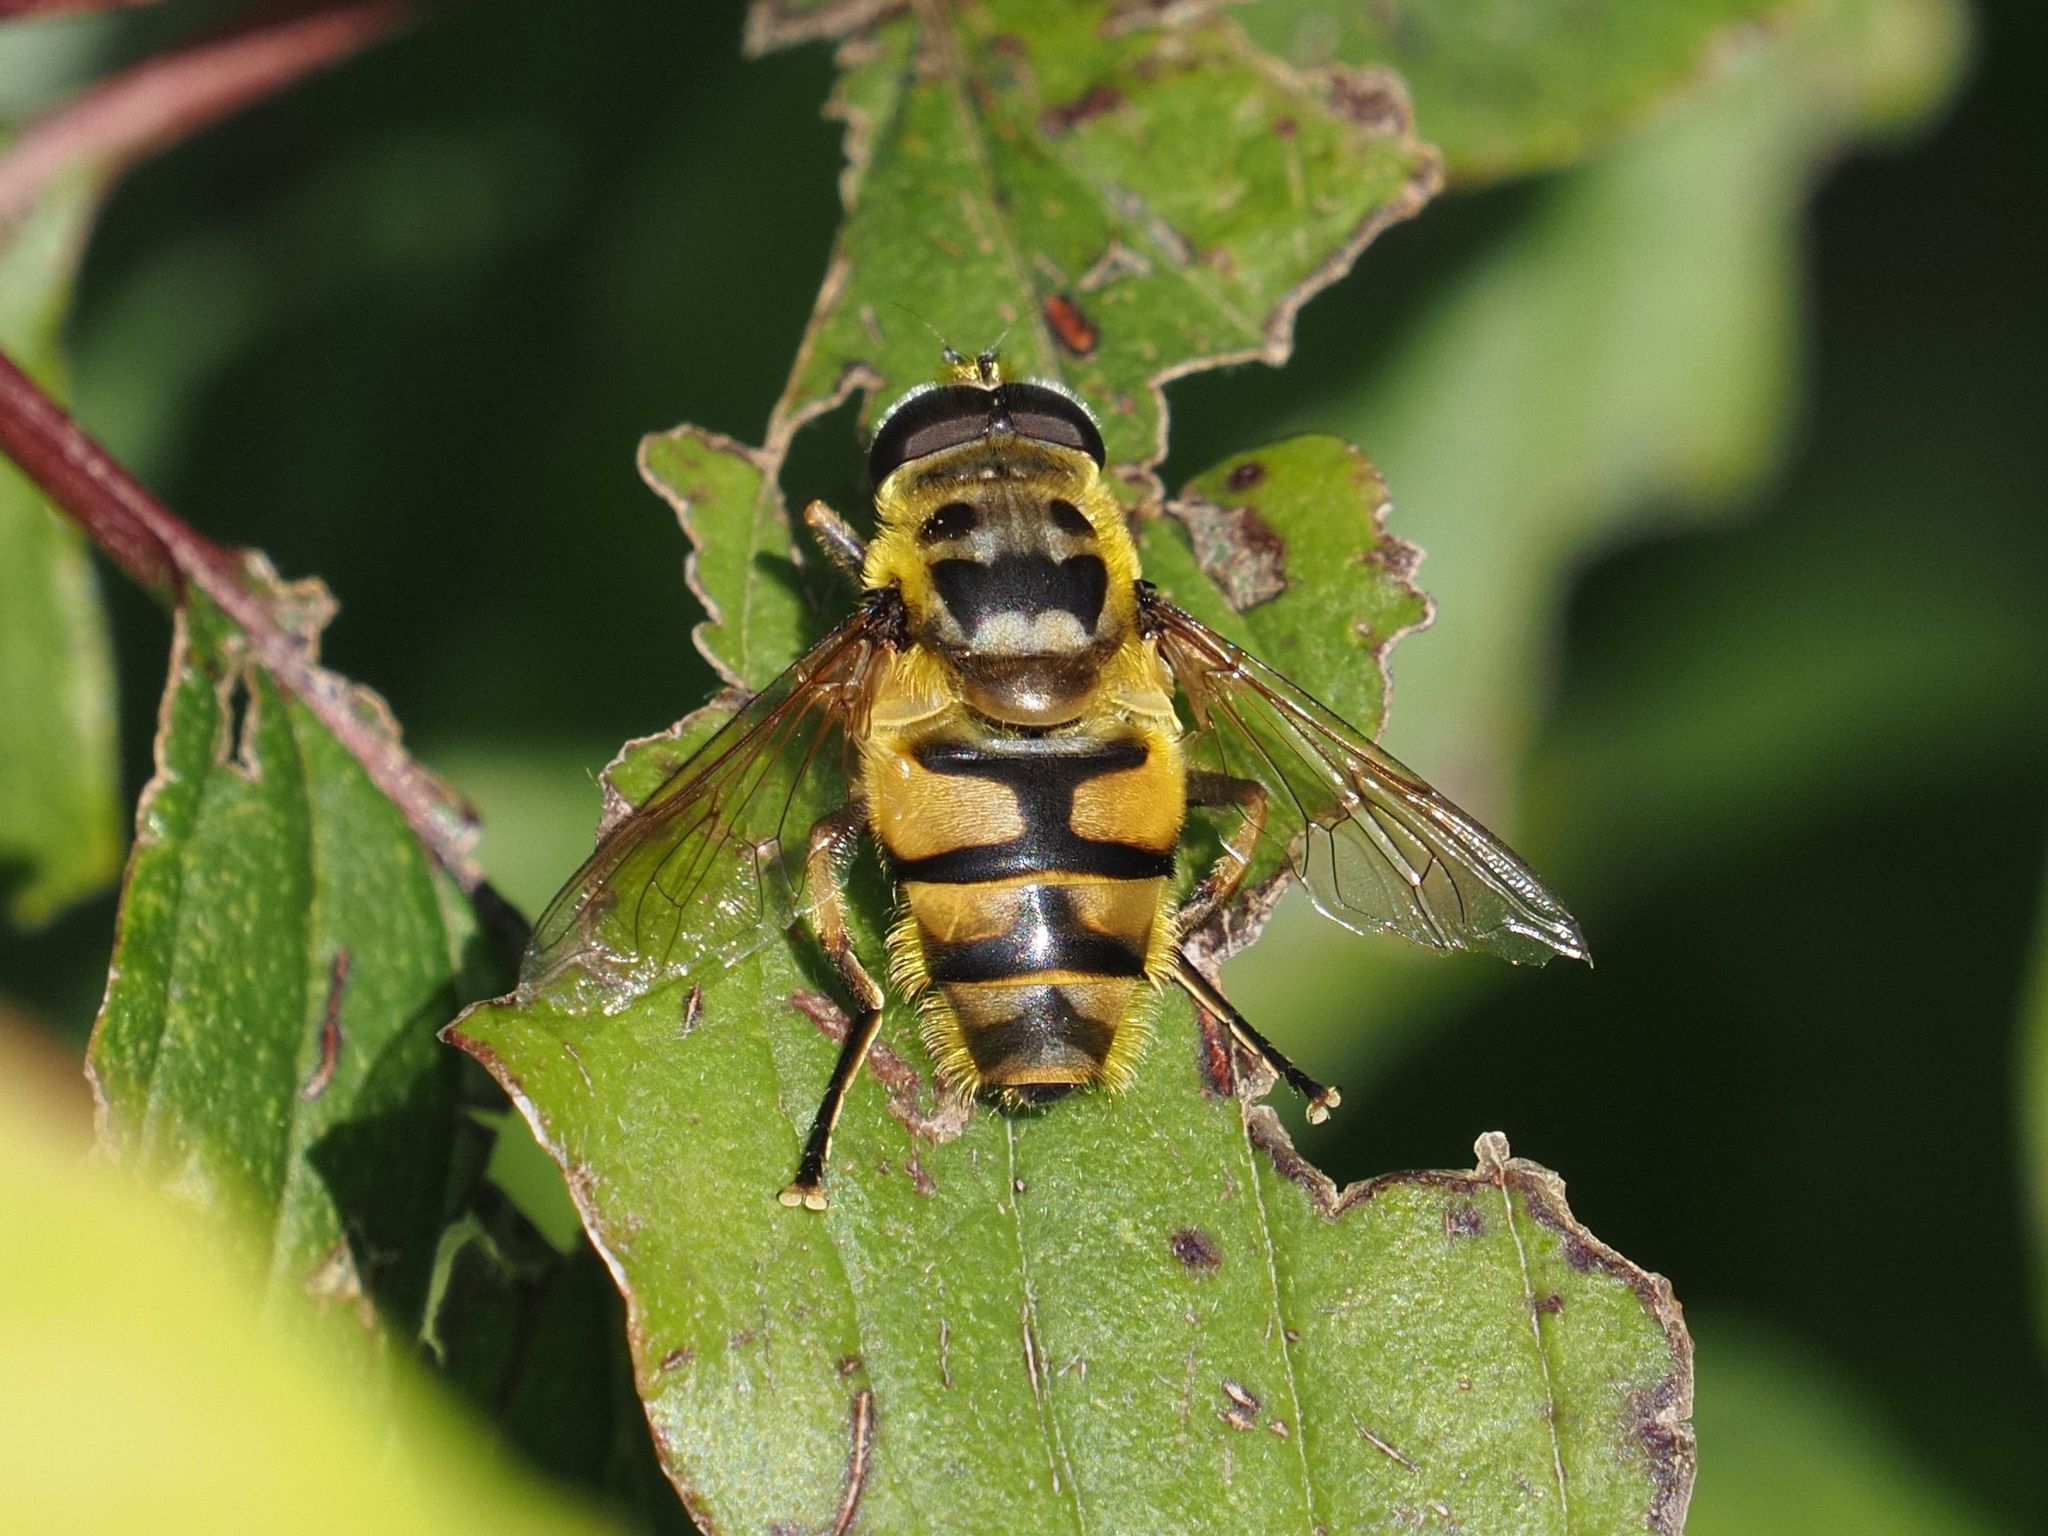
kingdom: Animalia
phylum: Arthropoda
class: Insecta
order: Diptera
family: Syrphidae
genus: Myathropa
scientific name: Myathropa florea
